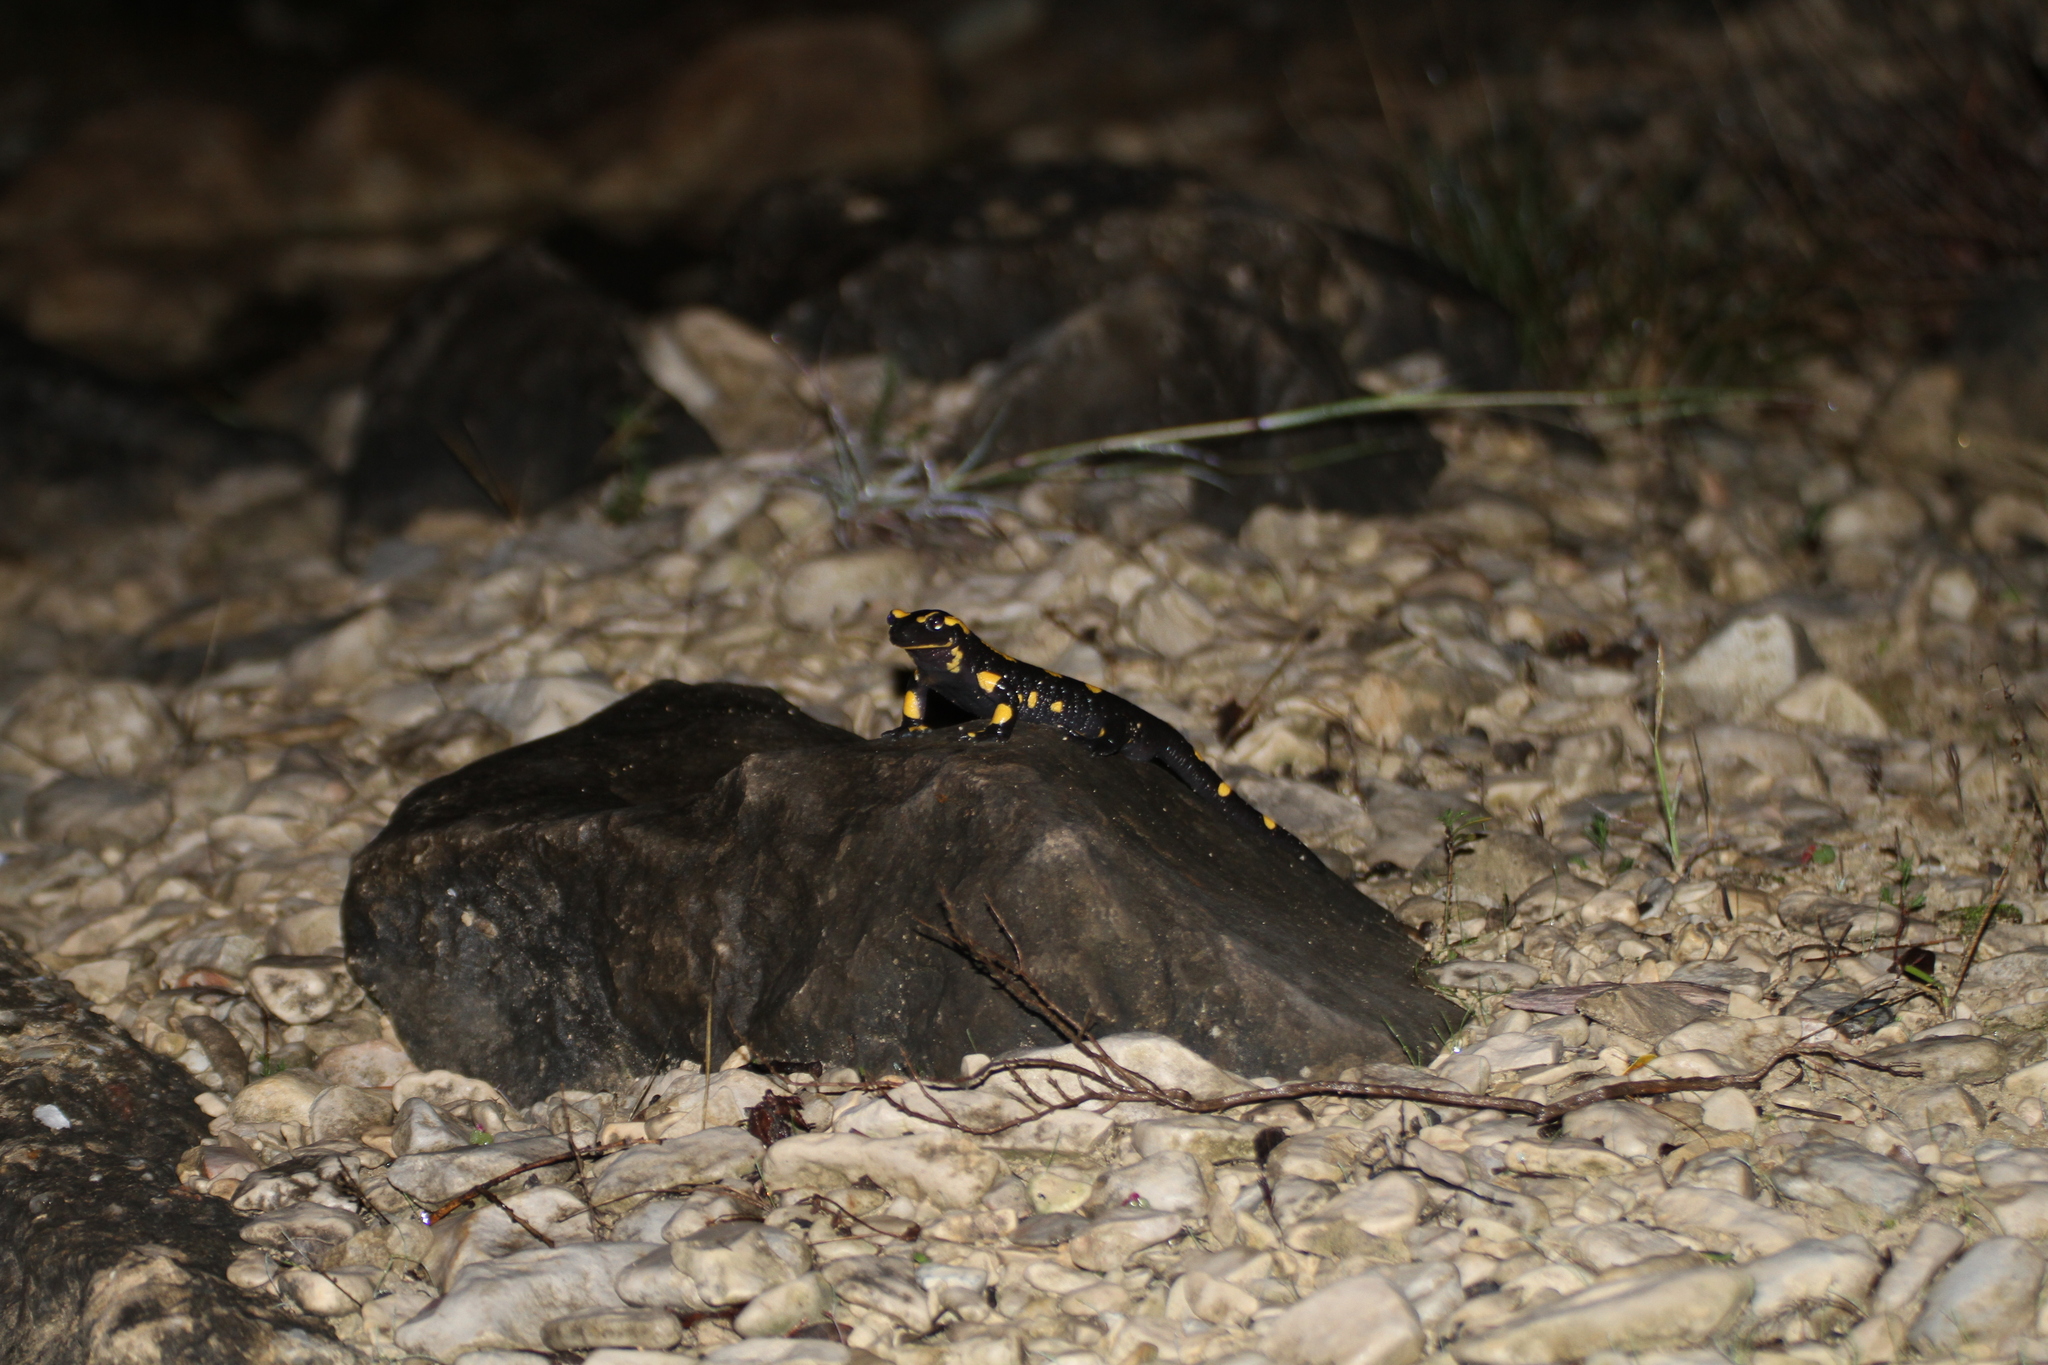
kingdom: Animalia
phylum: Chordata
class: Amphibia
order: Caudata
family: Salamandridae
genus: Salamandra
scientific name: Salamandra salamandra
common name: Fire salamander
